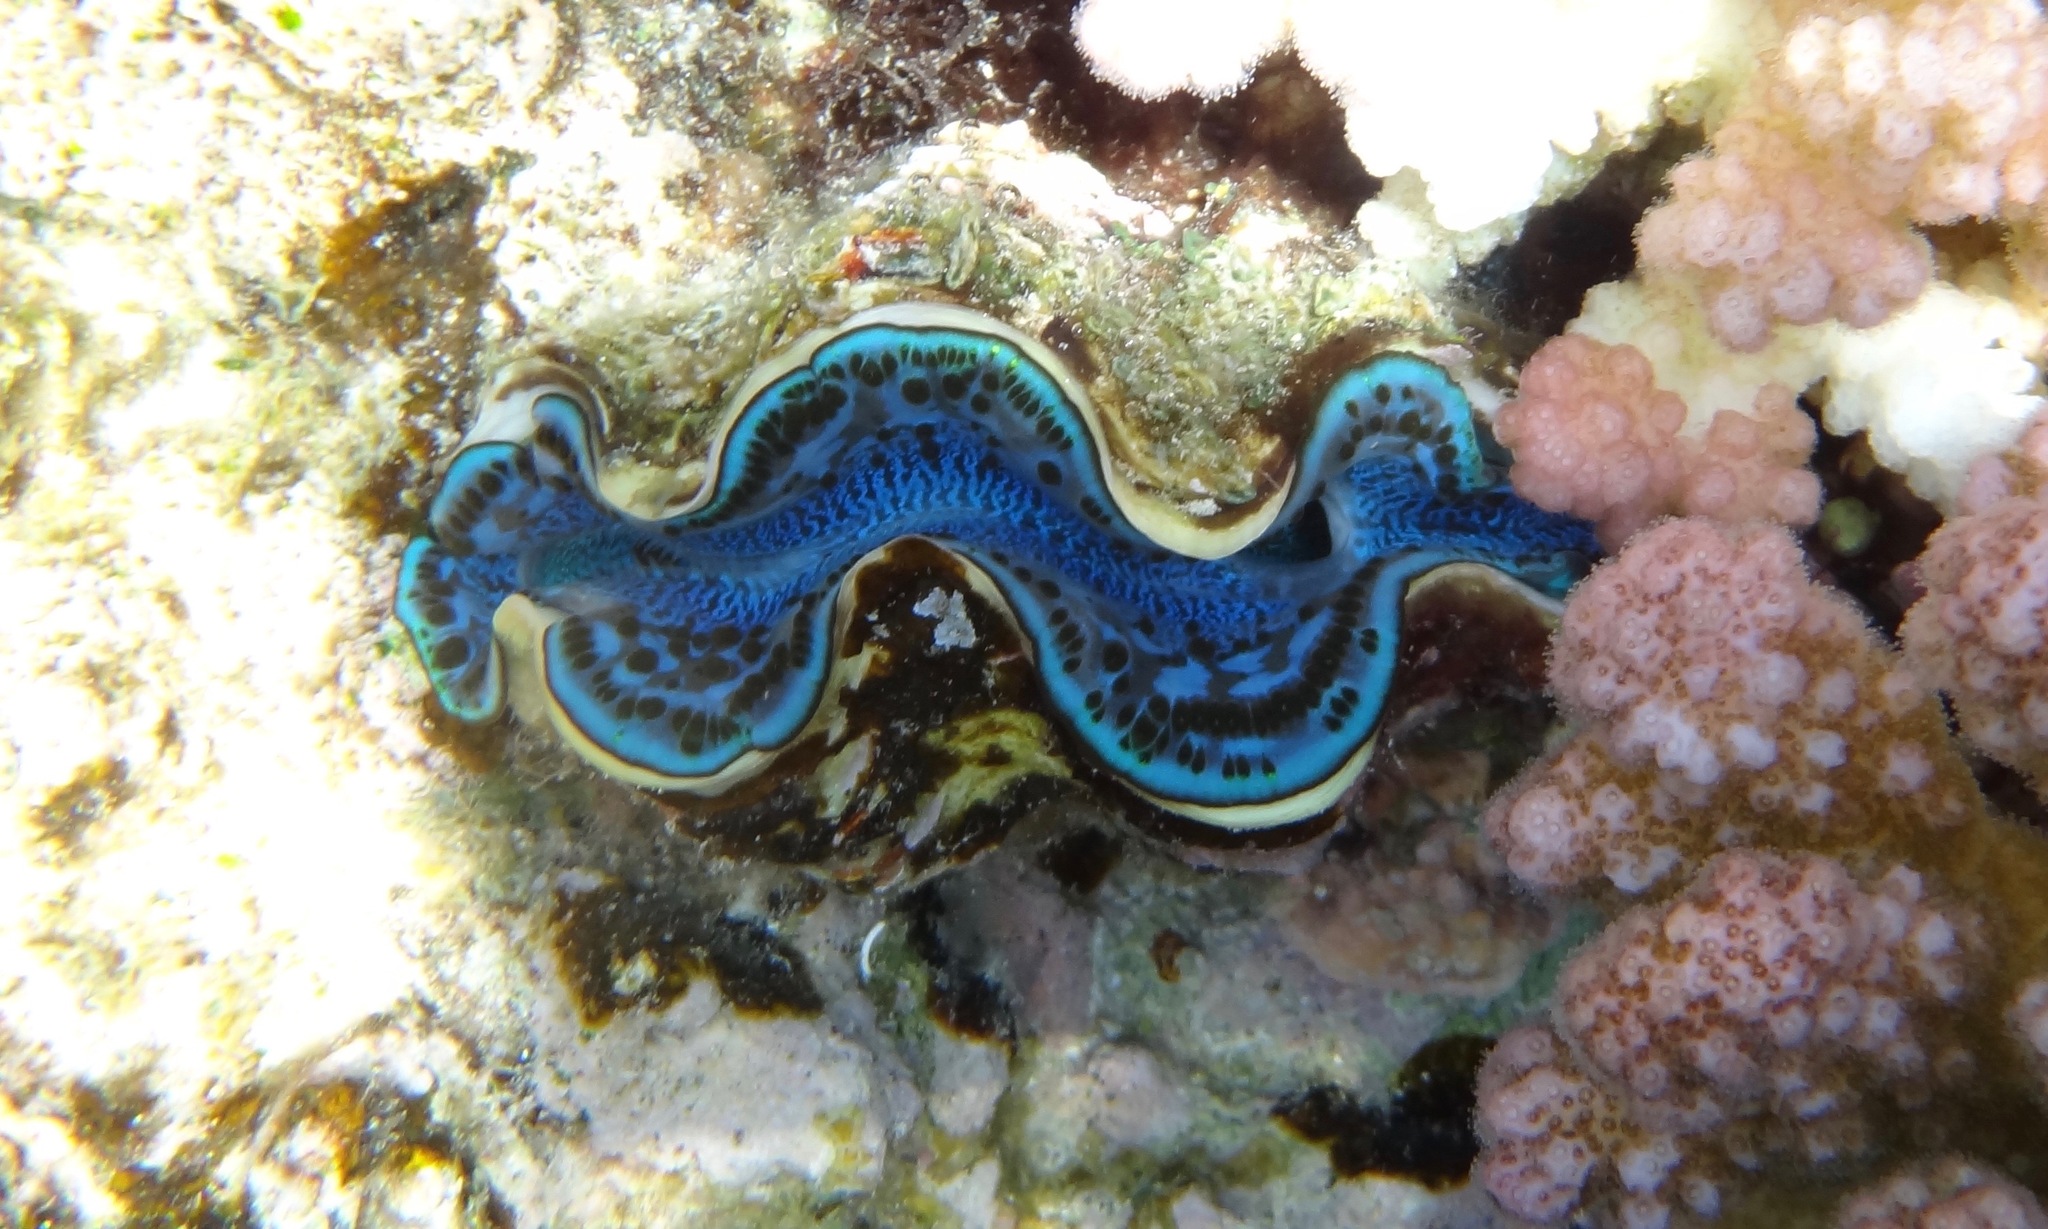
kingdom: Animalia
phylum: Mollusca
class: Bivalvia
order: Cardiida
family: Cardiidae
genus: Tridacna
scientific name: Tridacna maxima
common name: Small giant clam
